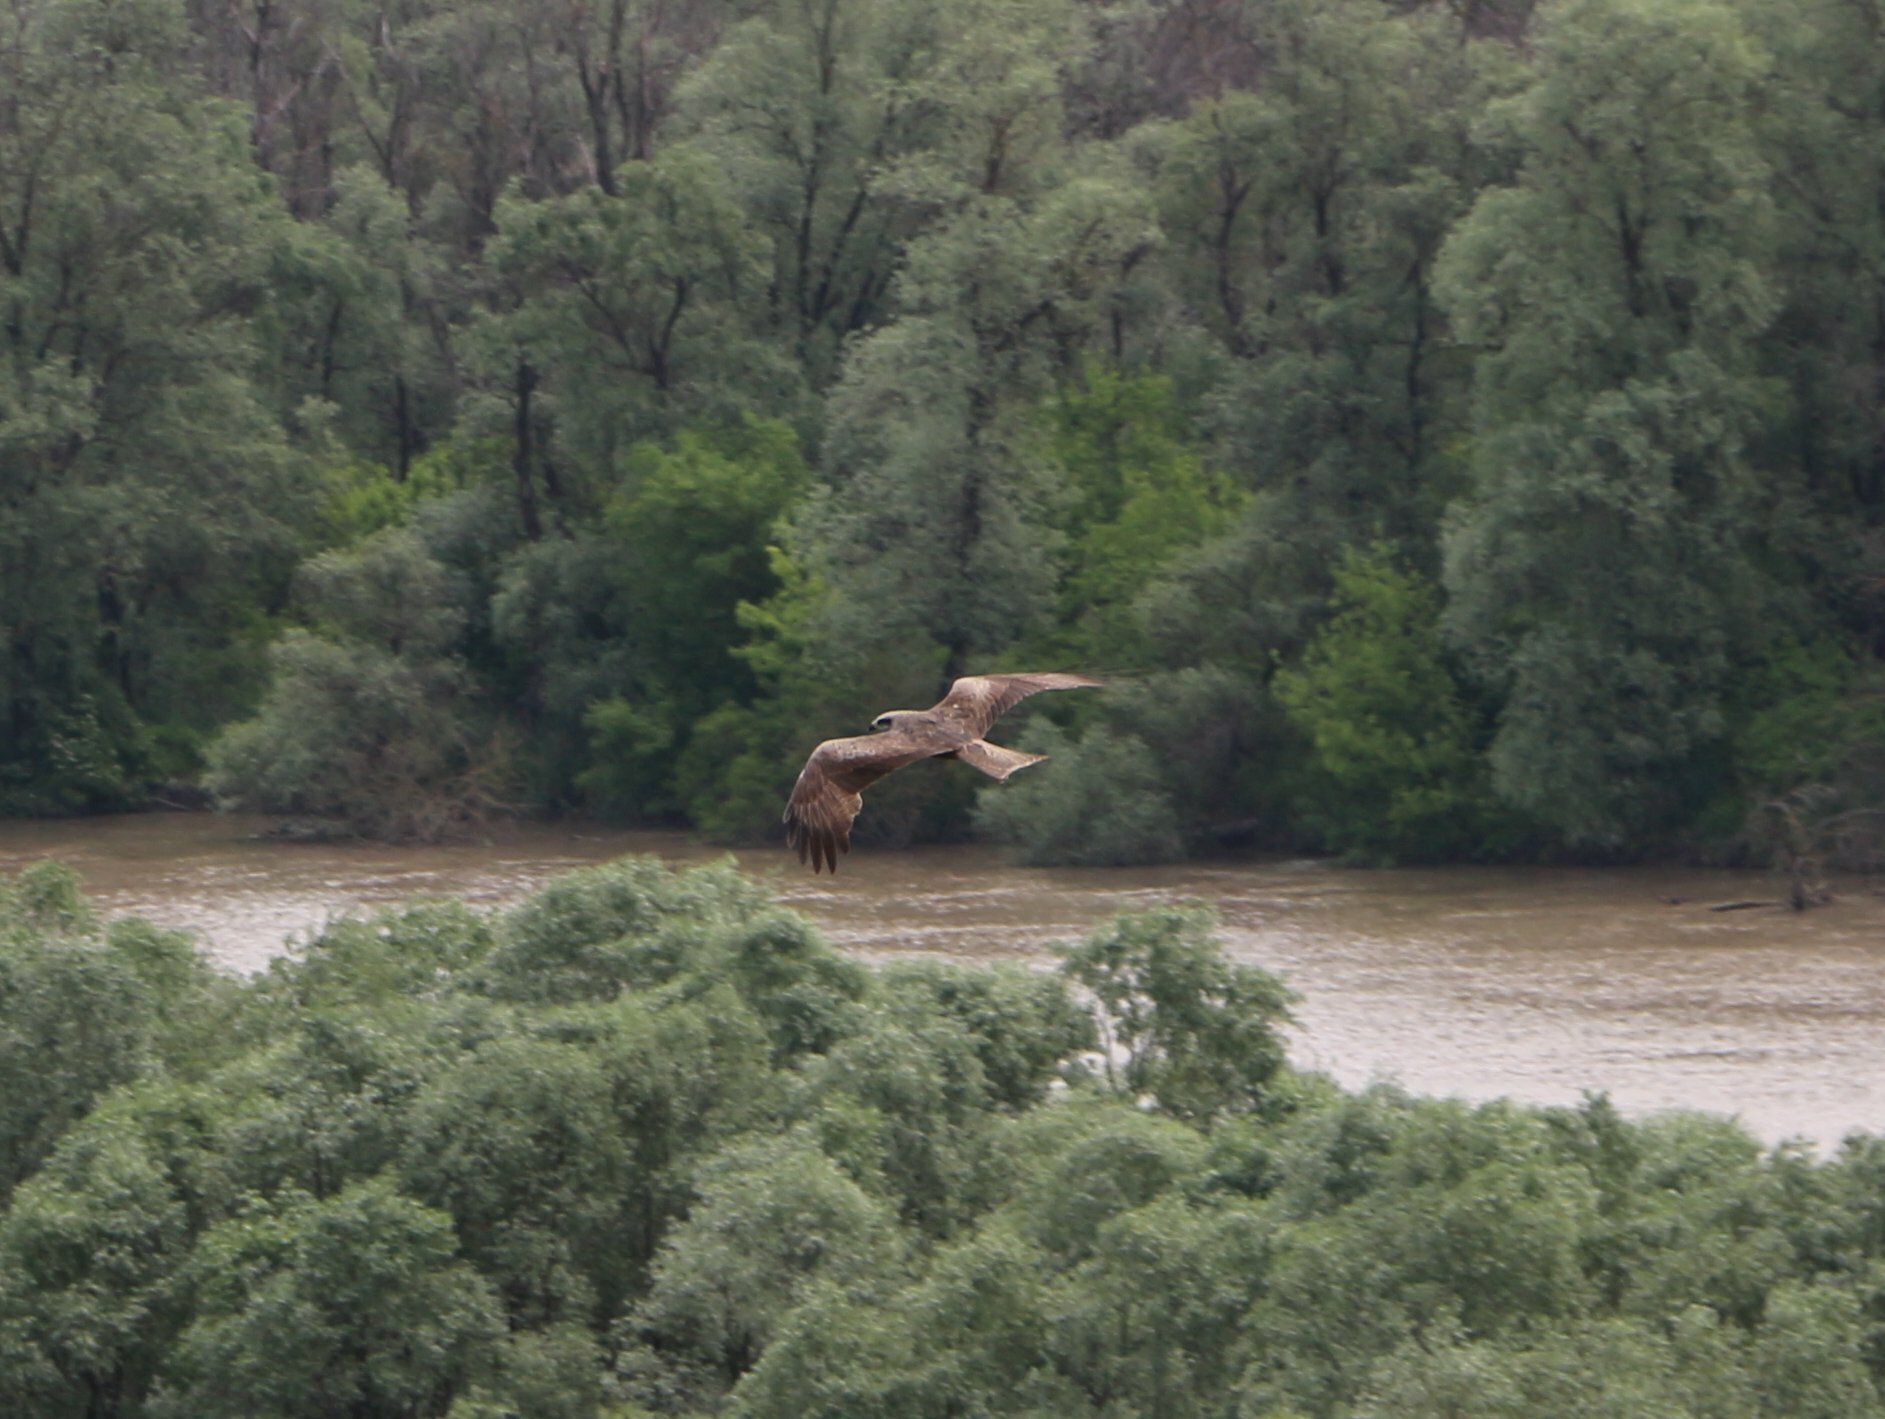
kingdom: Animalia
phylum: Chordata
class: Aves
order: Accipitriformes
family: Accipitridae
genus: Milvus
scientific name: Milvus migrans
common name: Black kite
